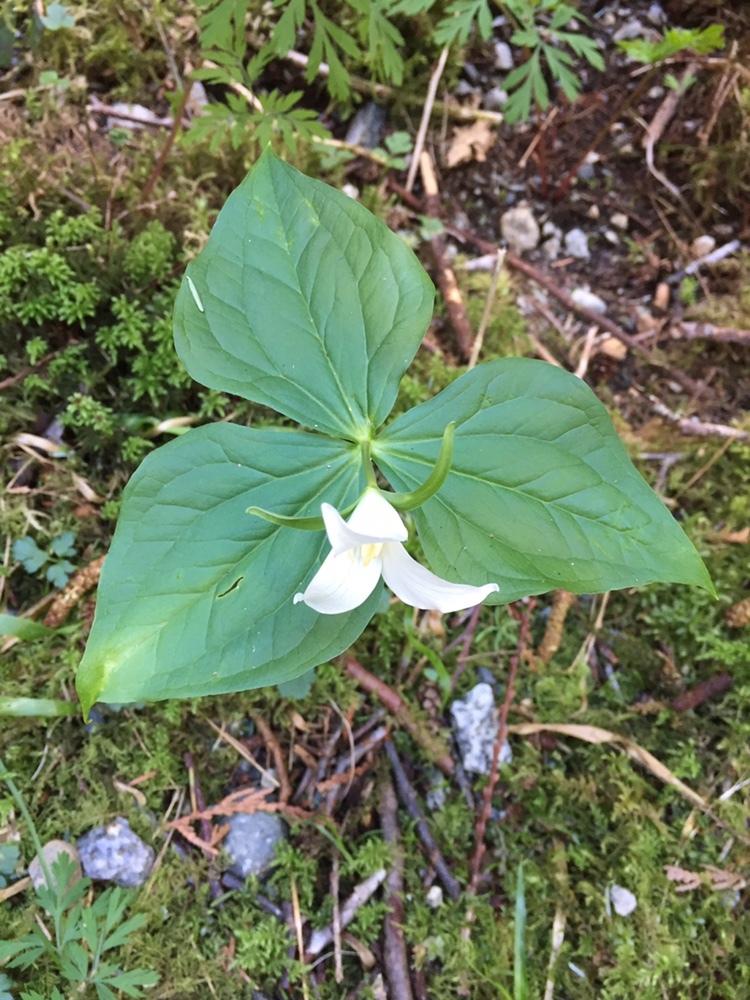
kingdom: Plantae
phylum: Tracheophyta
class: Liliopsida
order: Liliales
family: Melanthiaceae
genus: Trillium
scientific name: Trillium ovatum
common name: Pacific trillium
